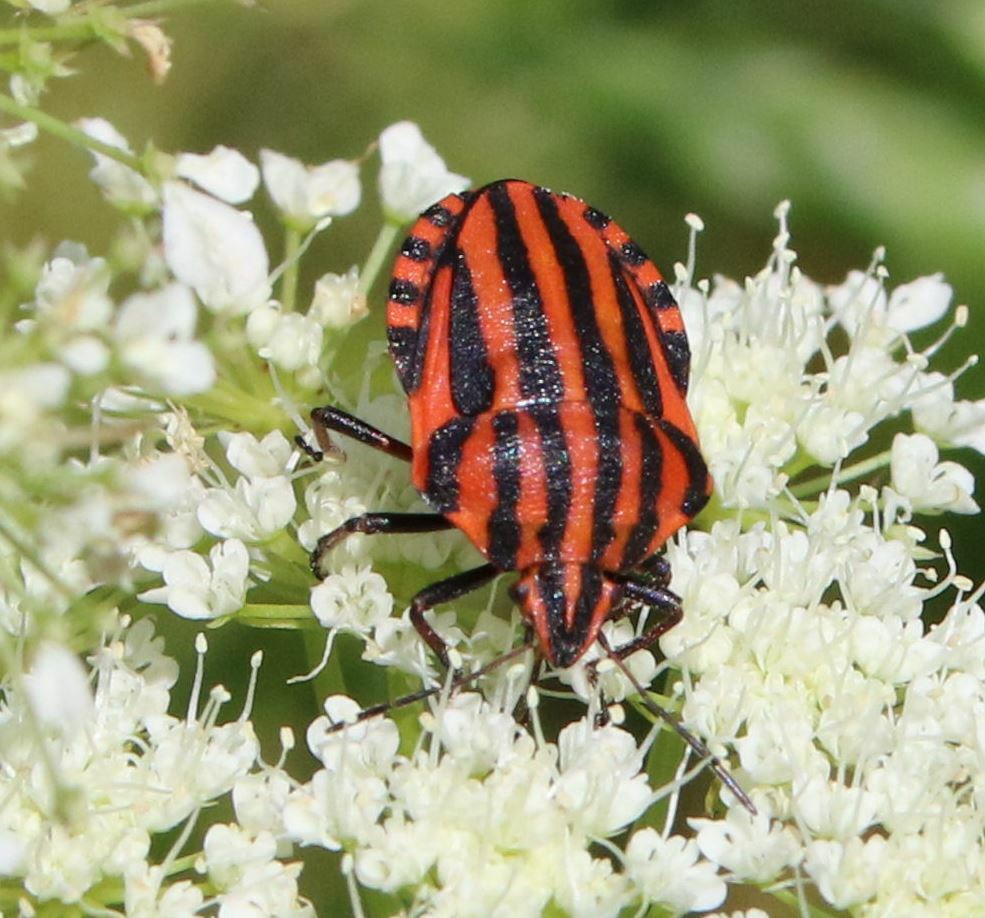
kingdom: Animalia
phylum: Arthropoda
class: Insecta
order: Hemiptera
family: Pentatomidae
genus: Graphosoma
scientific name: Graphosoma italicum
